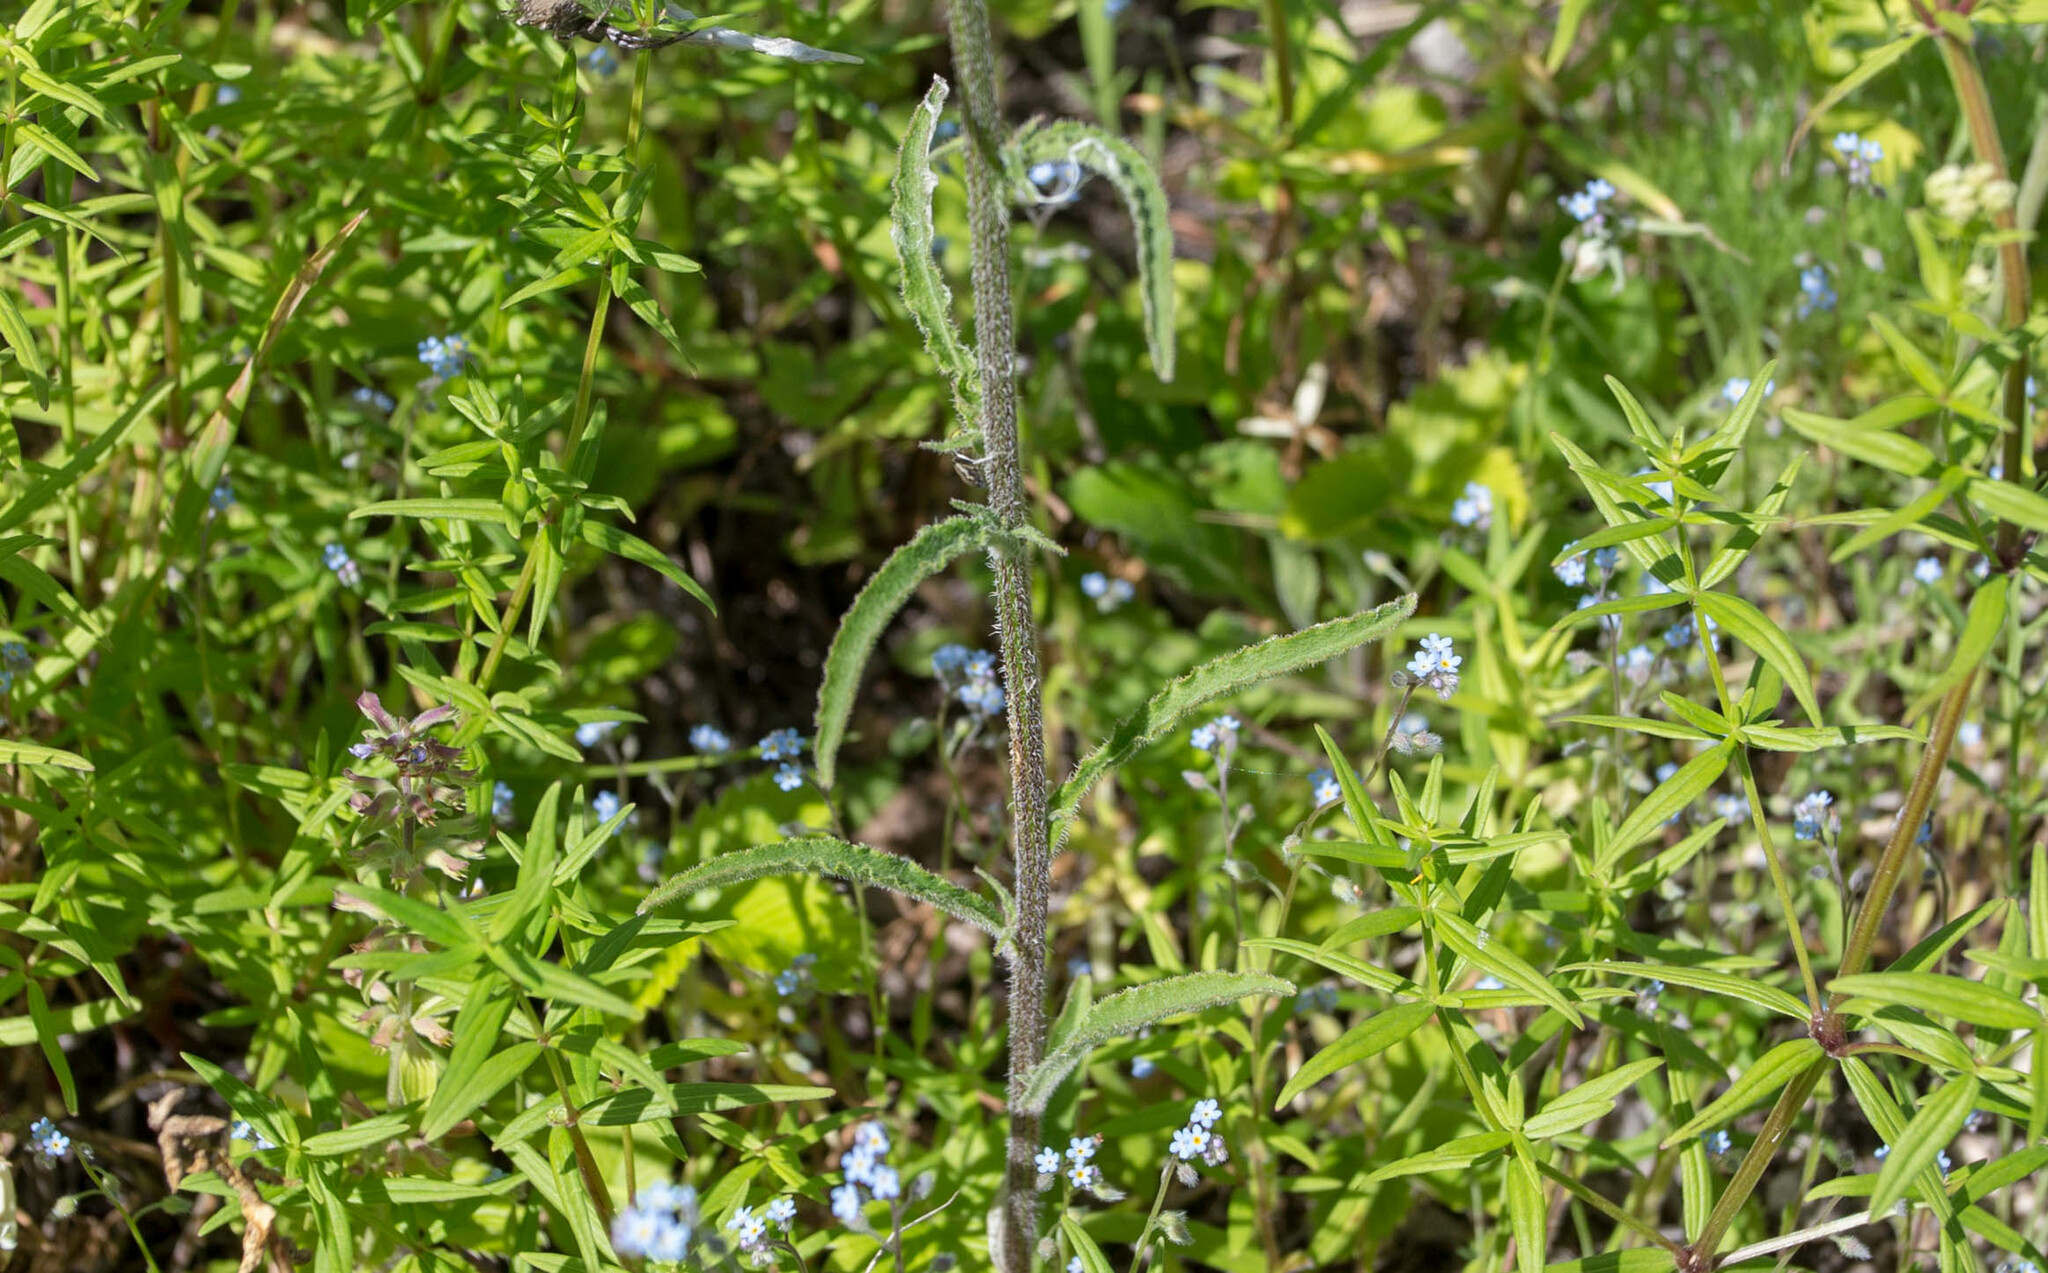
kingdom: Plantae
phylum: Tracheophyta
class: Magnoliopsida
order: Asterales
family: Campanulaceae
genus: Campanula
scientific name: Campanula sibirica
